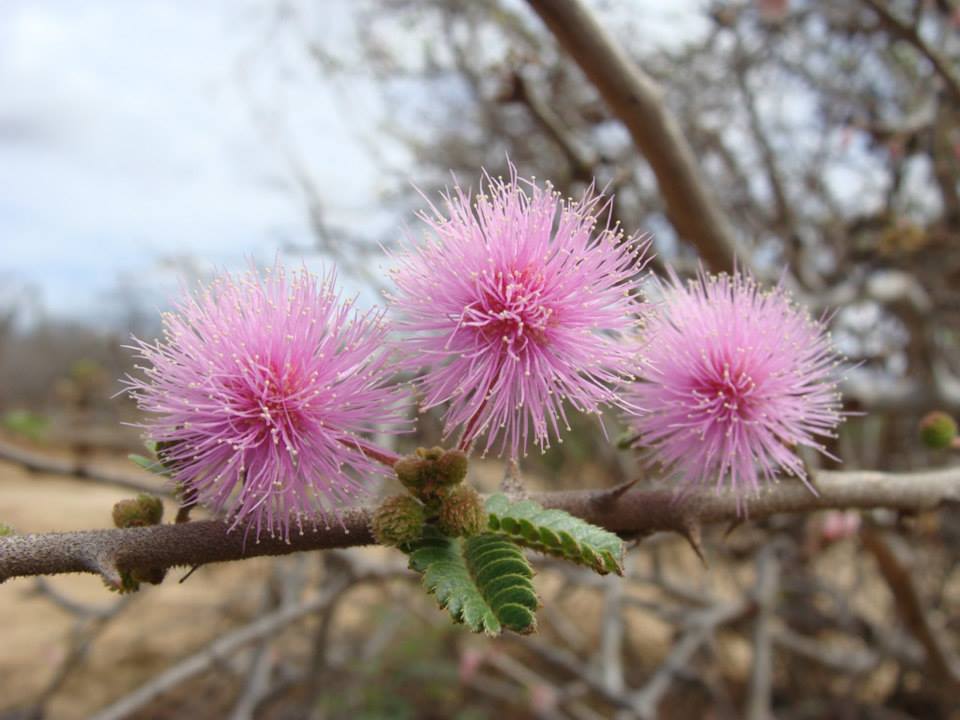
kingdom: Plantae
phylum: Tracheophyta
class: Magnoliopsida
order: Fabales
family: Fabaceae
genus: Mimosa
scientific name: Mimosa tricephala
